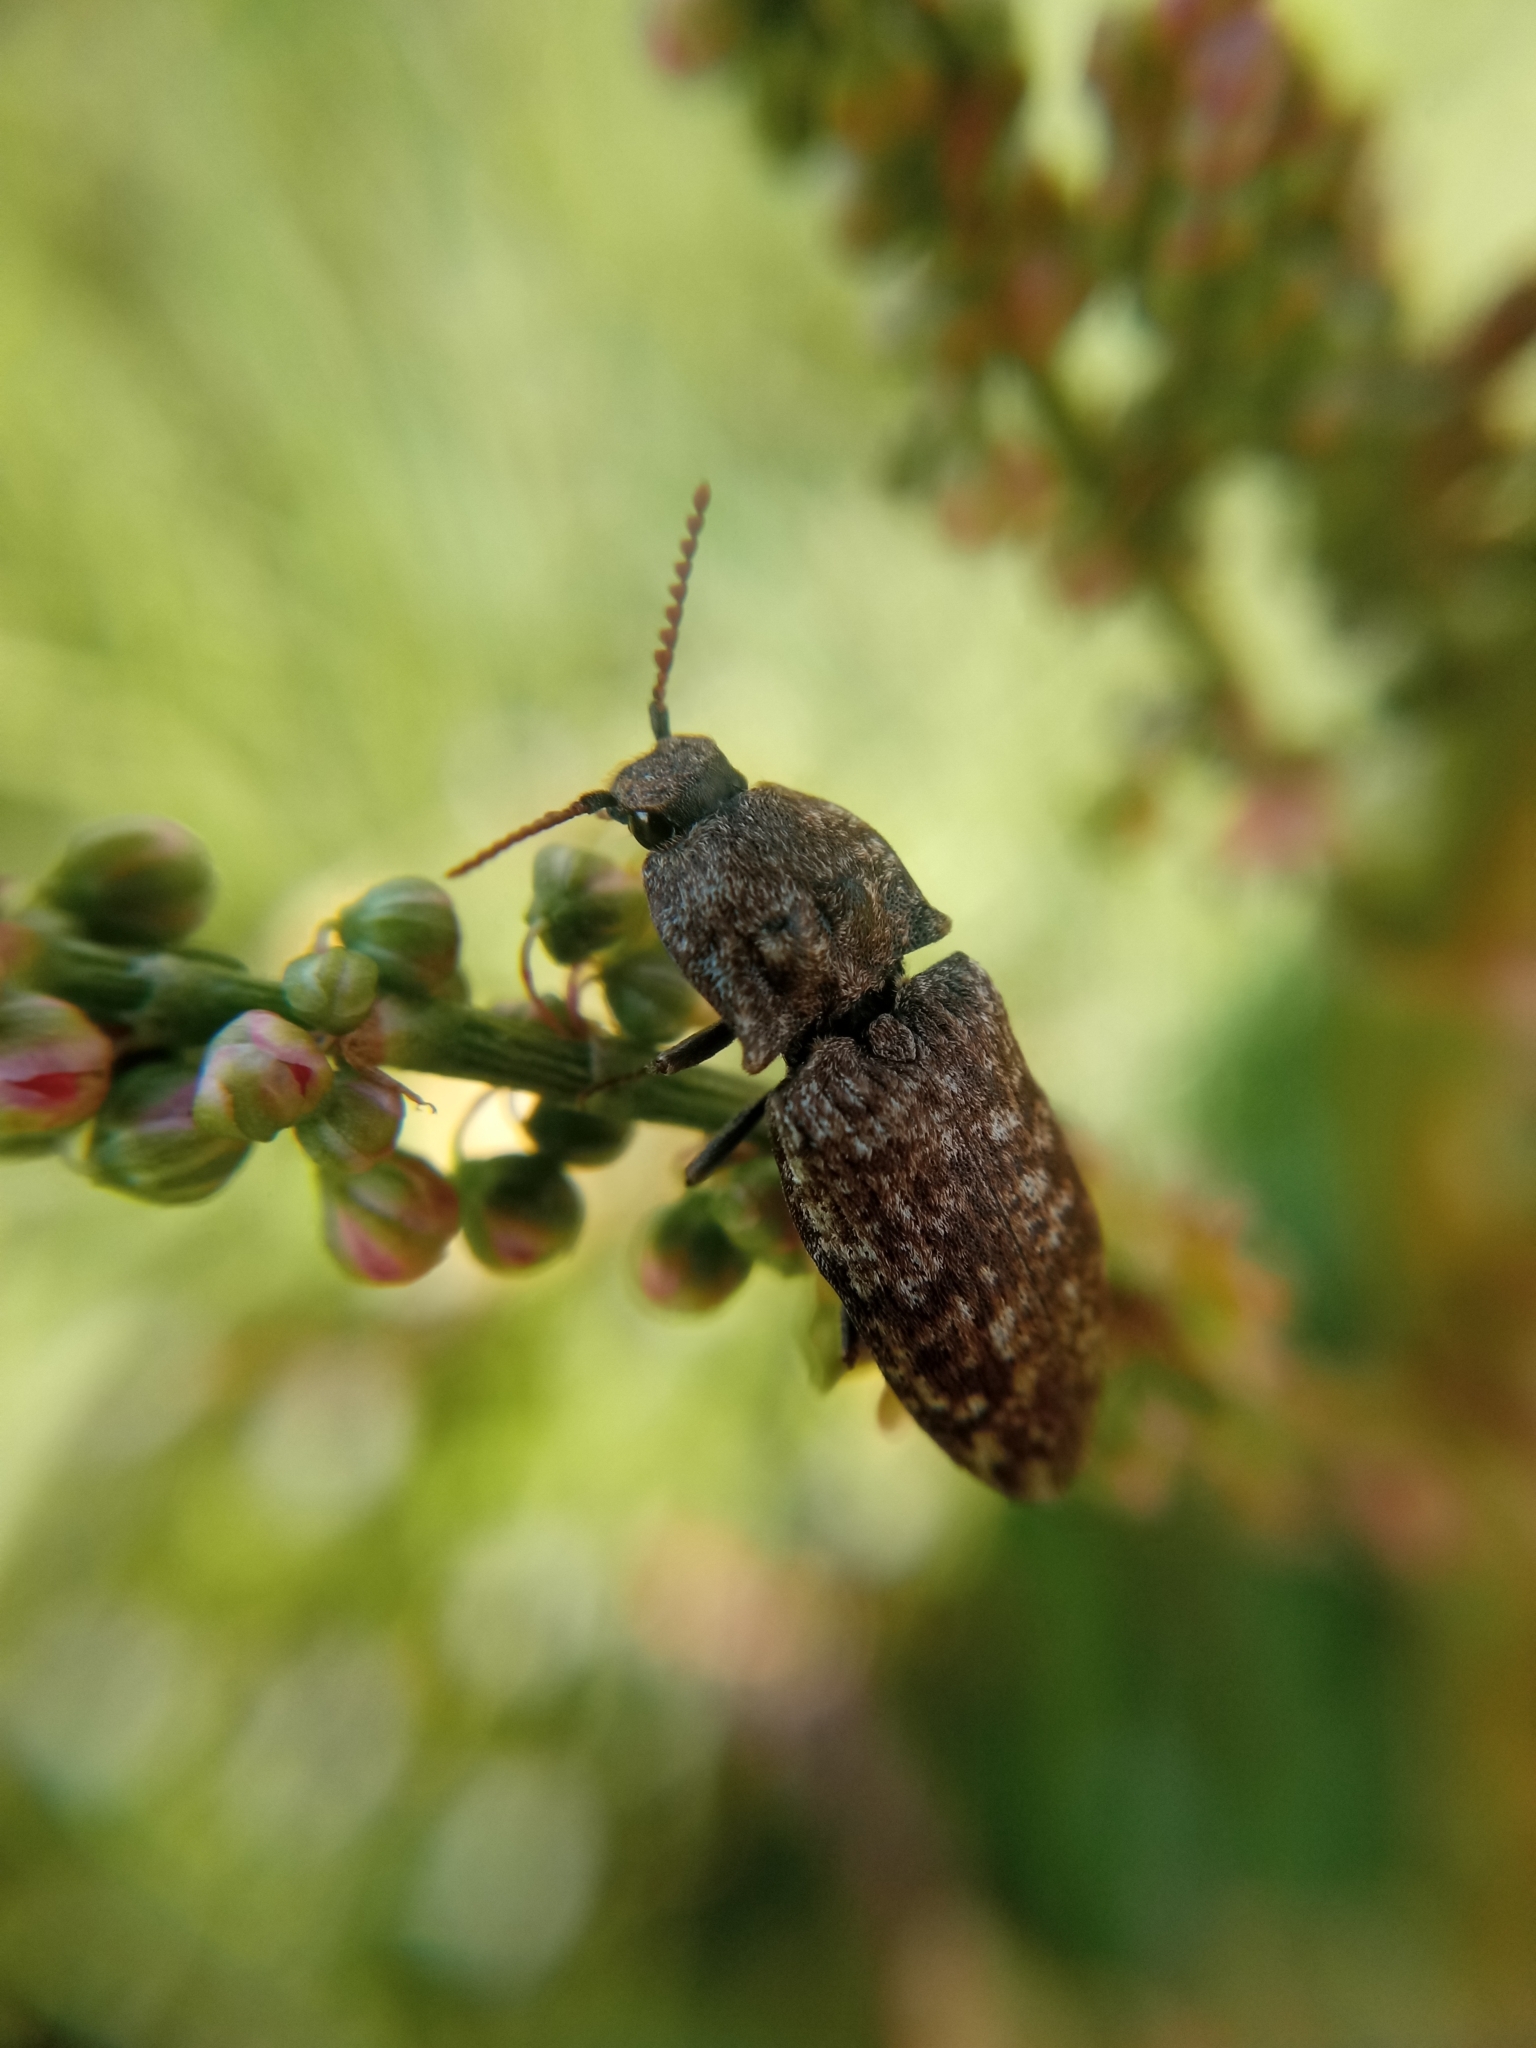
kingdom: Animalia
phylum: Arthropoda
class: Insecta
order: Coleoptera
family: Elateridae
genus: Agrypnus
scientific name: Agrypnus murinus
